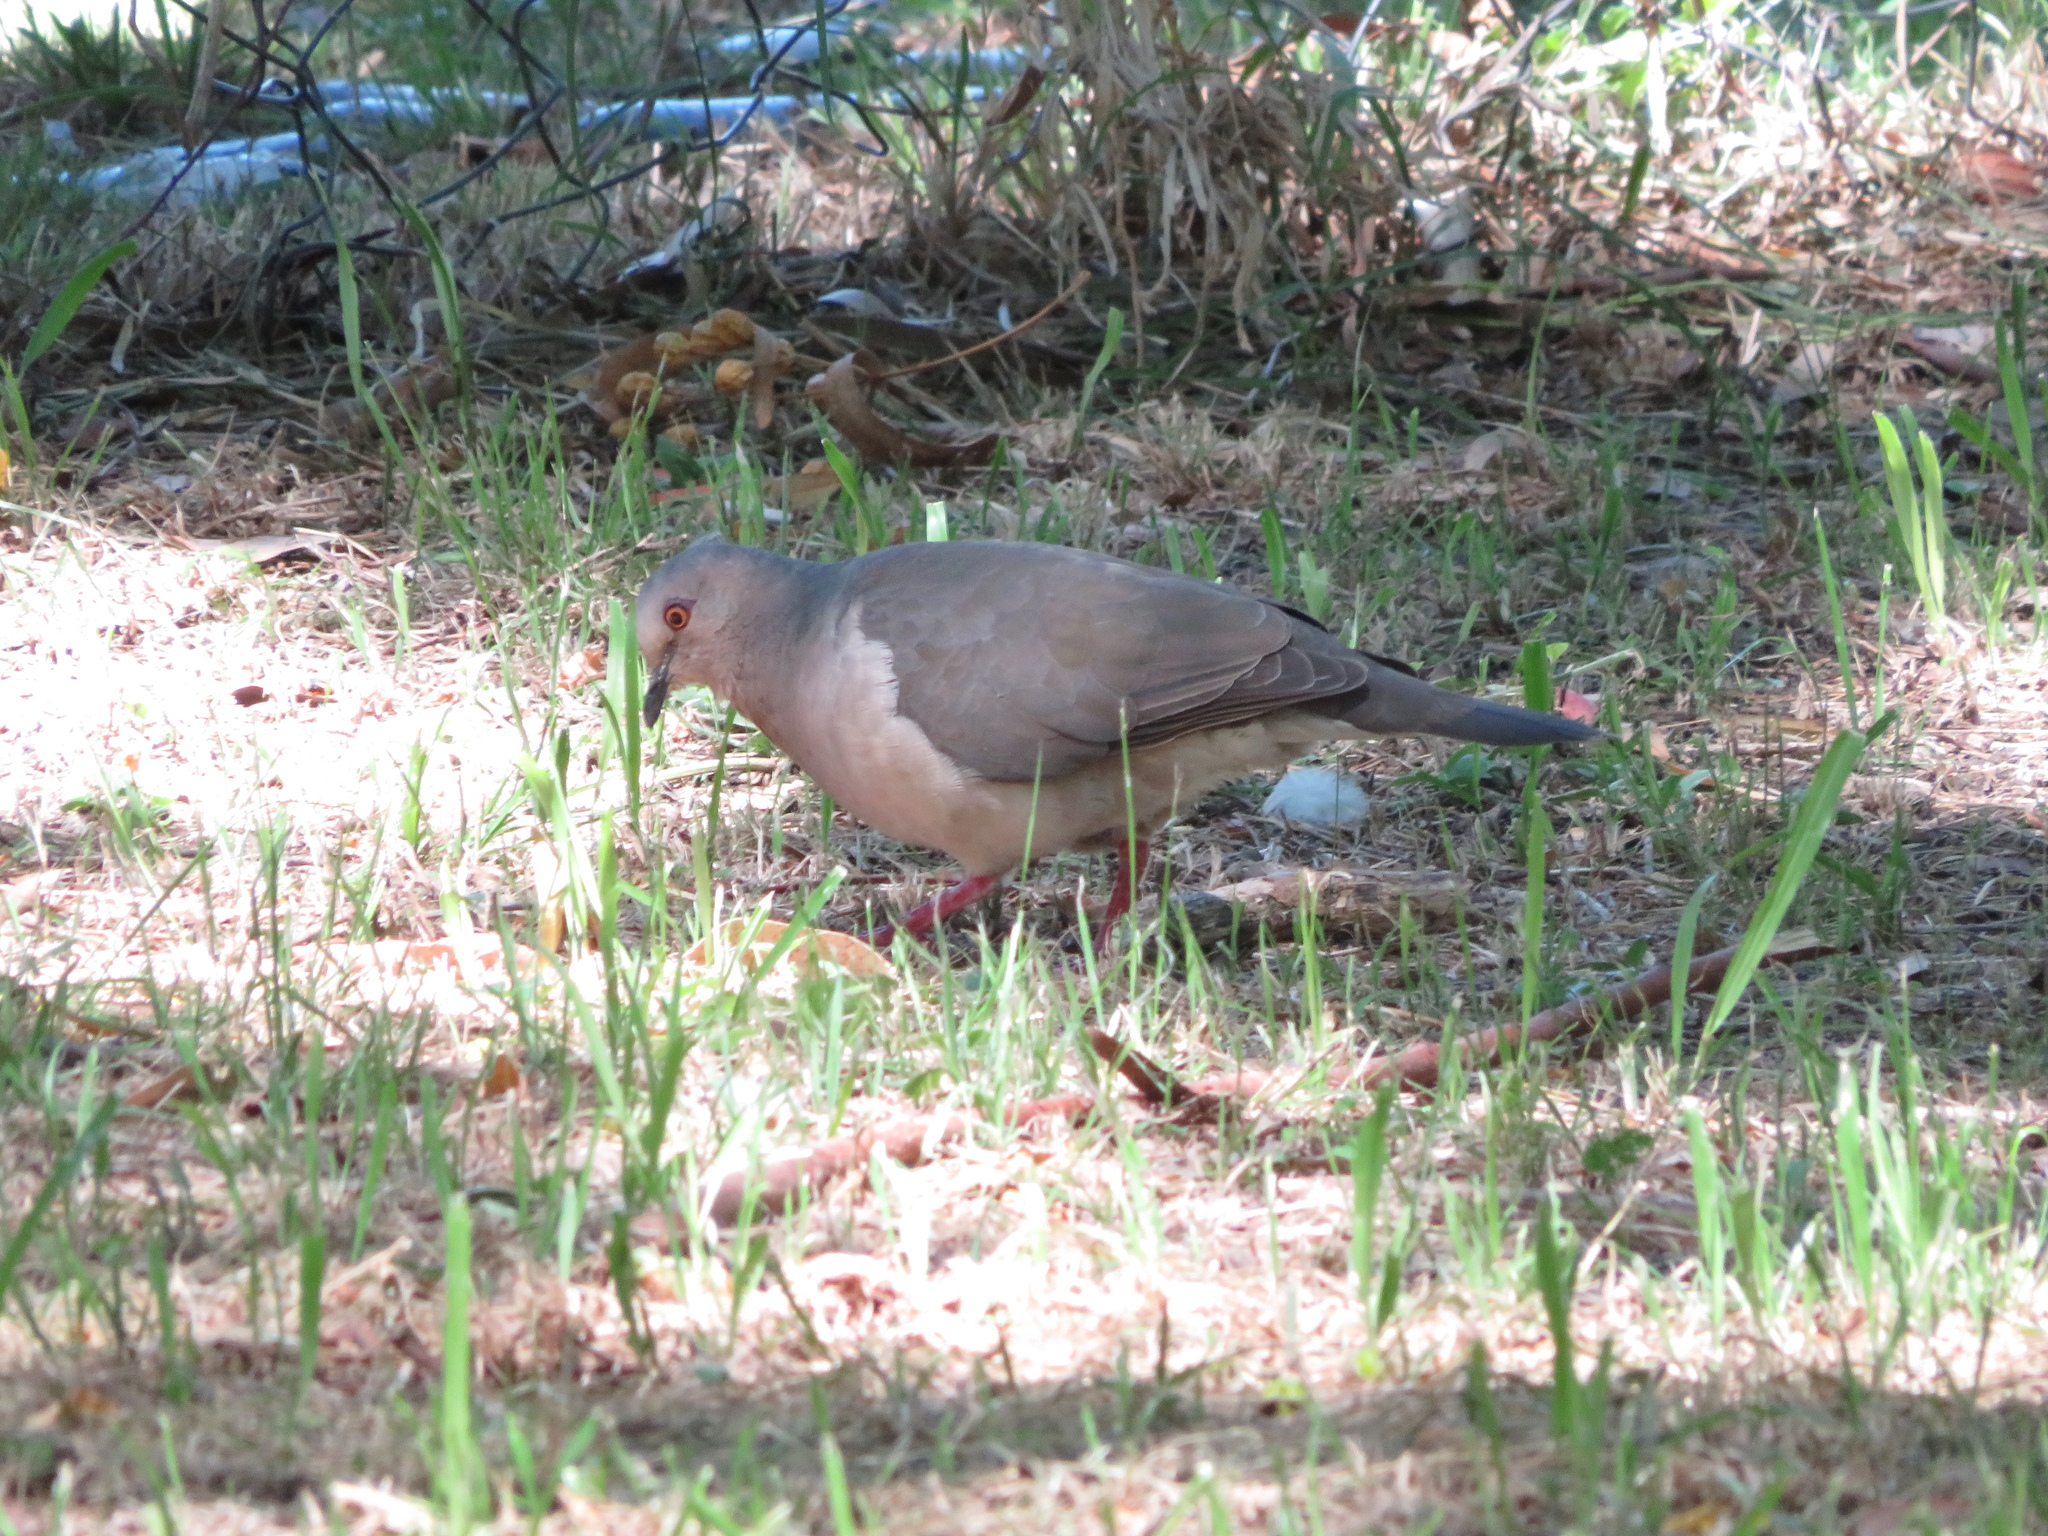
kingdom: Animalia
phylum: Chordata
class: Aves
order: Columbiformes
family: Columbidae
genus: Leptotila
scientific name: Leptotila verreauxi
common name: White-tipped dove
